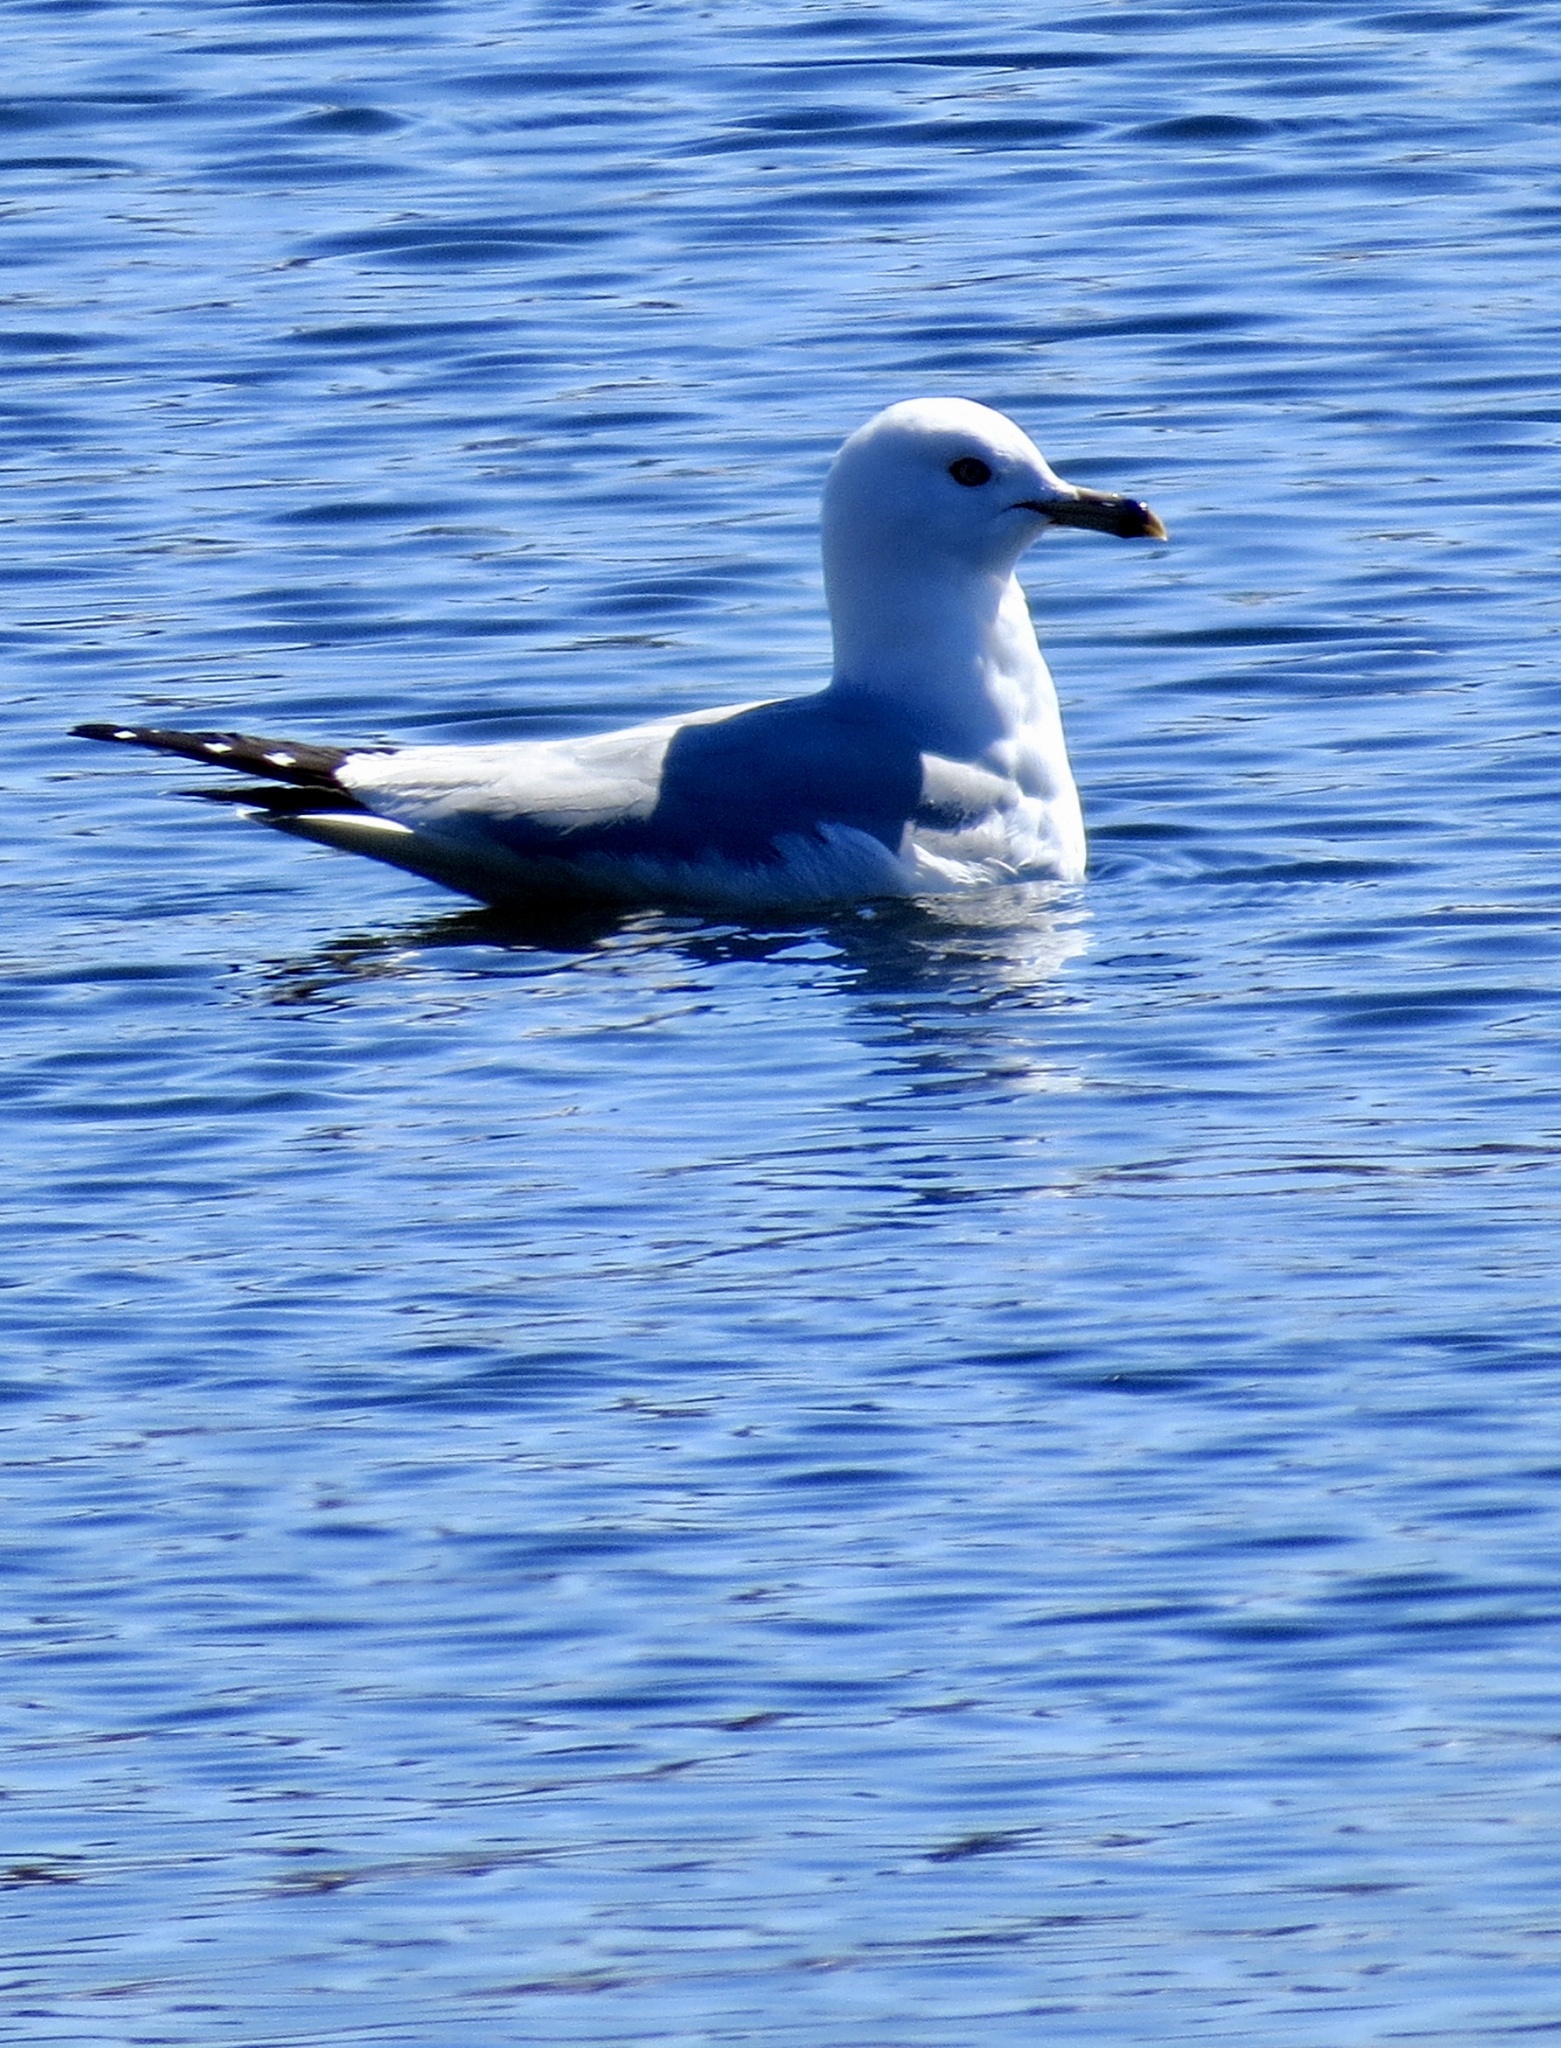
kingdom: Animalia
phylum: Chordata
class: Aves
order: Charadriiformes
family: Laridae
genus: Larus
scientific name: Larus delawarensis
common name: Ring-billed gull
